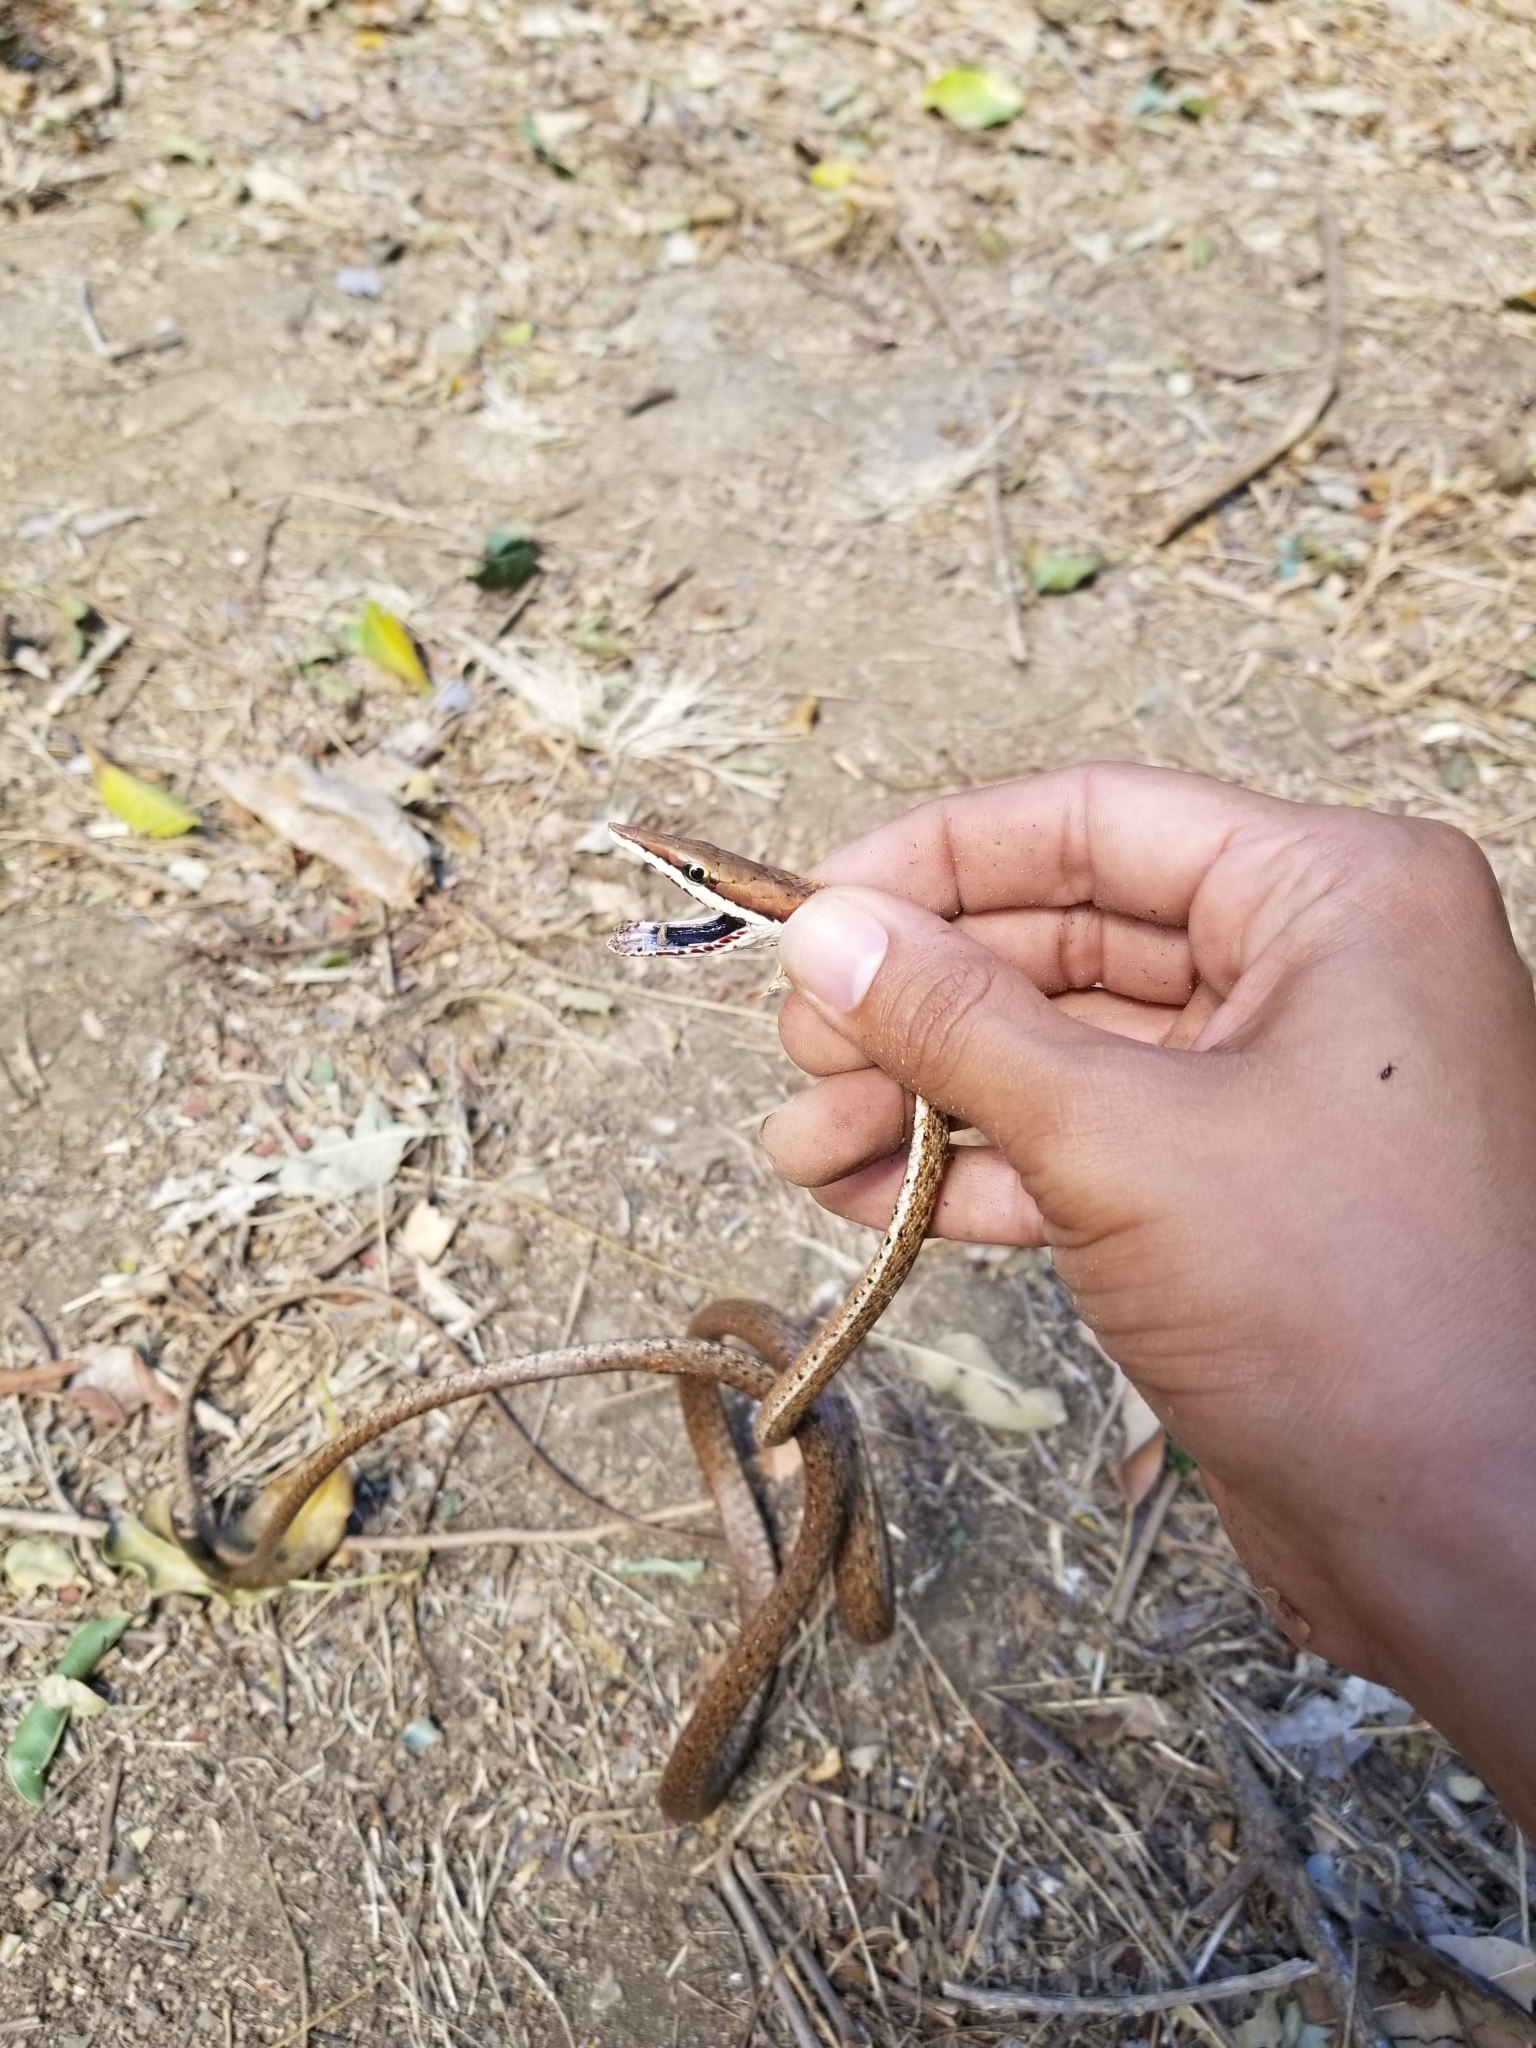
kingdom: Animalia
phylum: Chordata
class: Squamata
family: Colubridae
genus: Oxybelis
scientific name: Oxybelis koehleri
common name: Köhler’s vine snake
